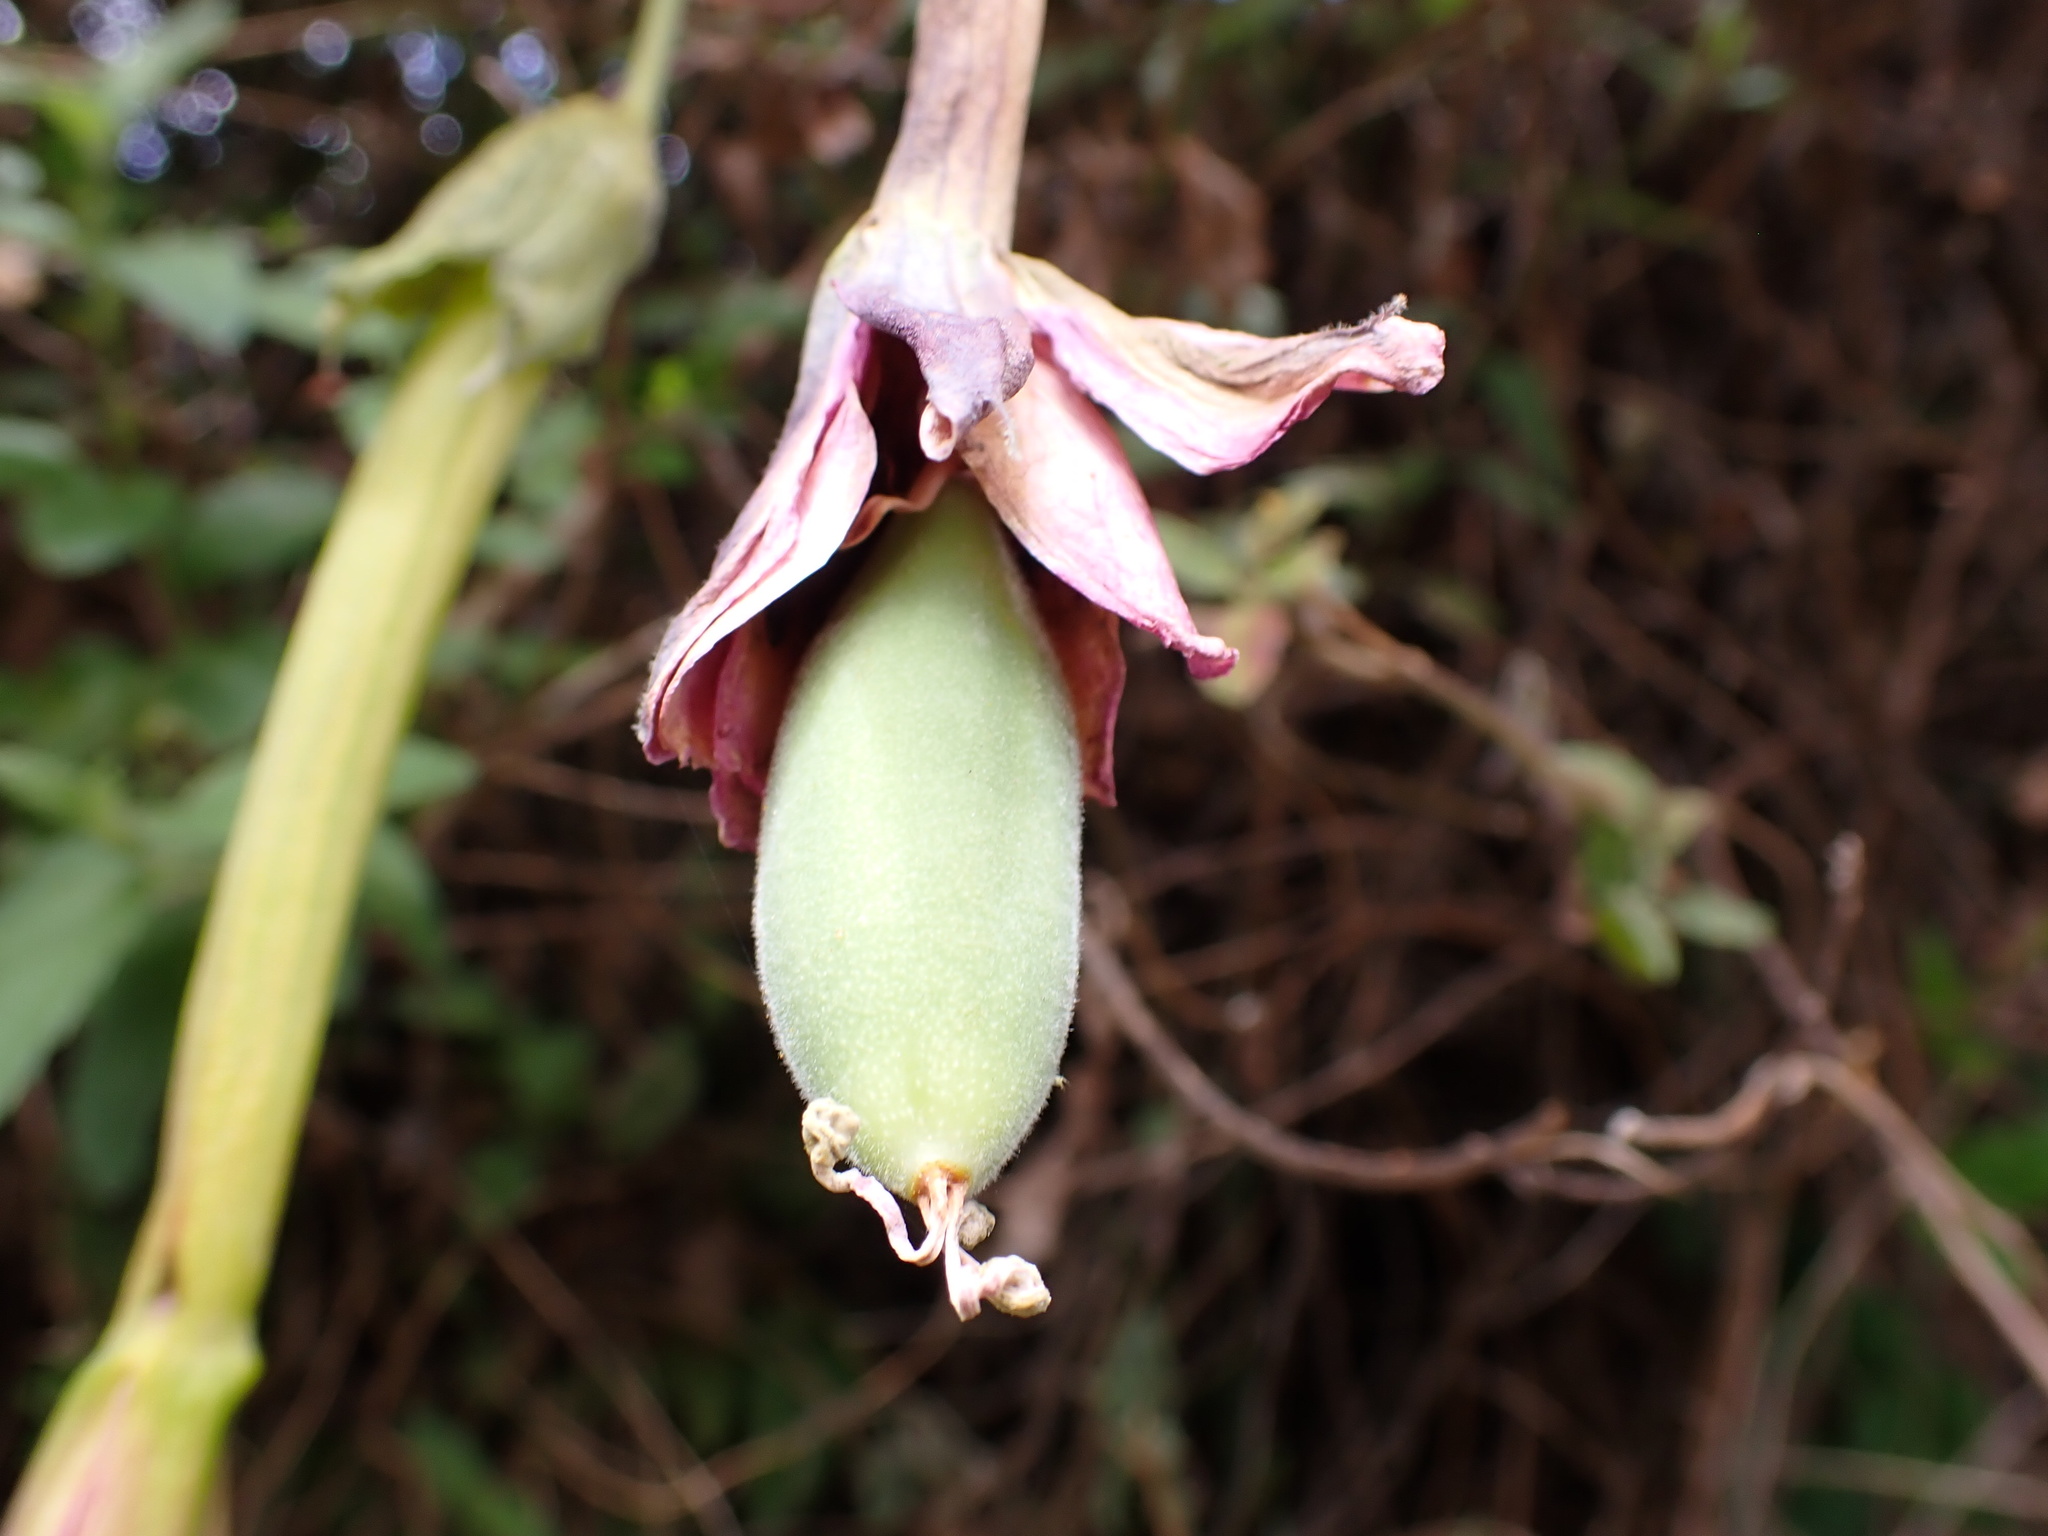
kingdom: Plantae
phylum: Tracheophyta
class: Magnoliopsida
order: Malpighiales
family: Passifloraceae
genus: Passiflora
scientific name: Passiflora tripartita
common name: Banana poka
